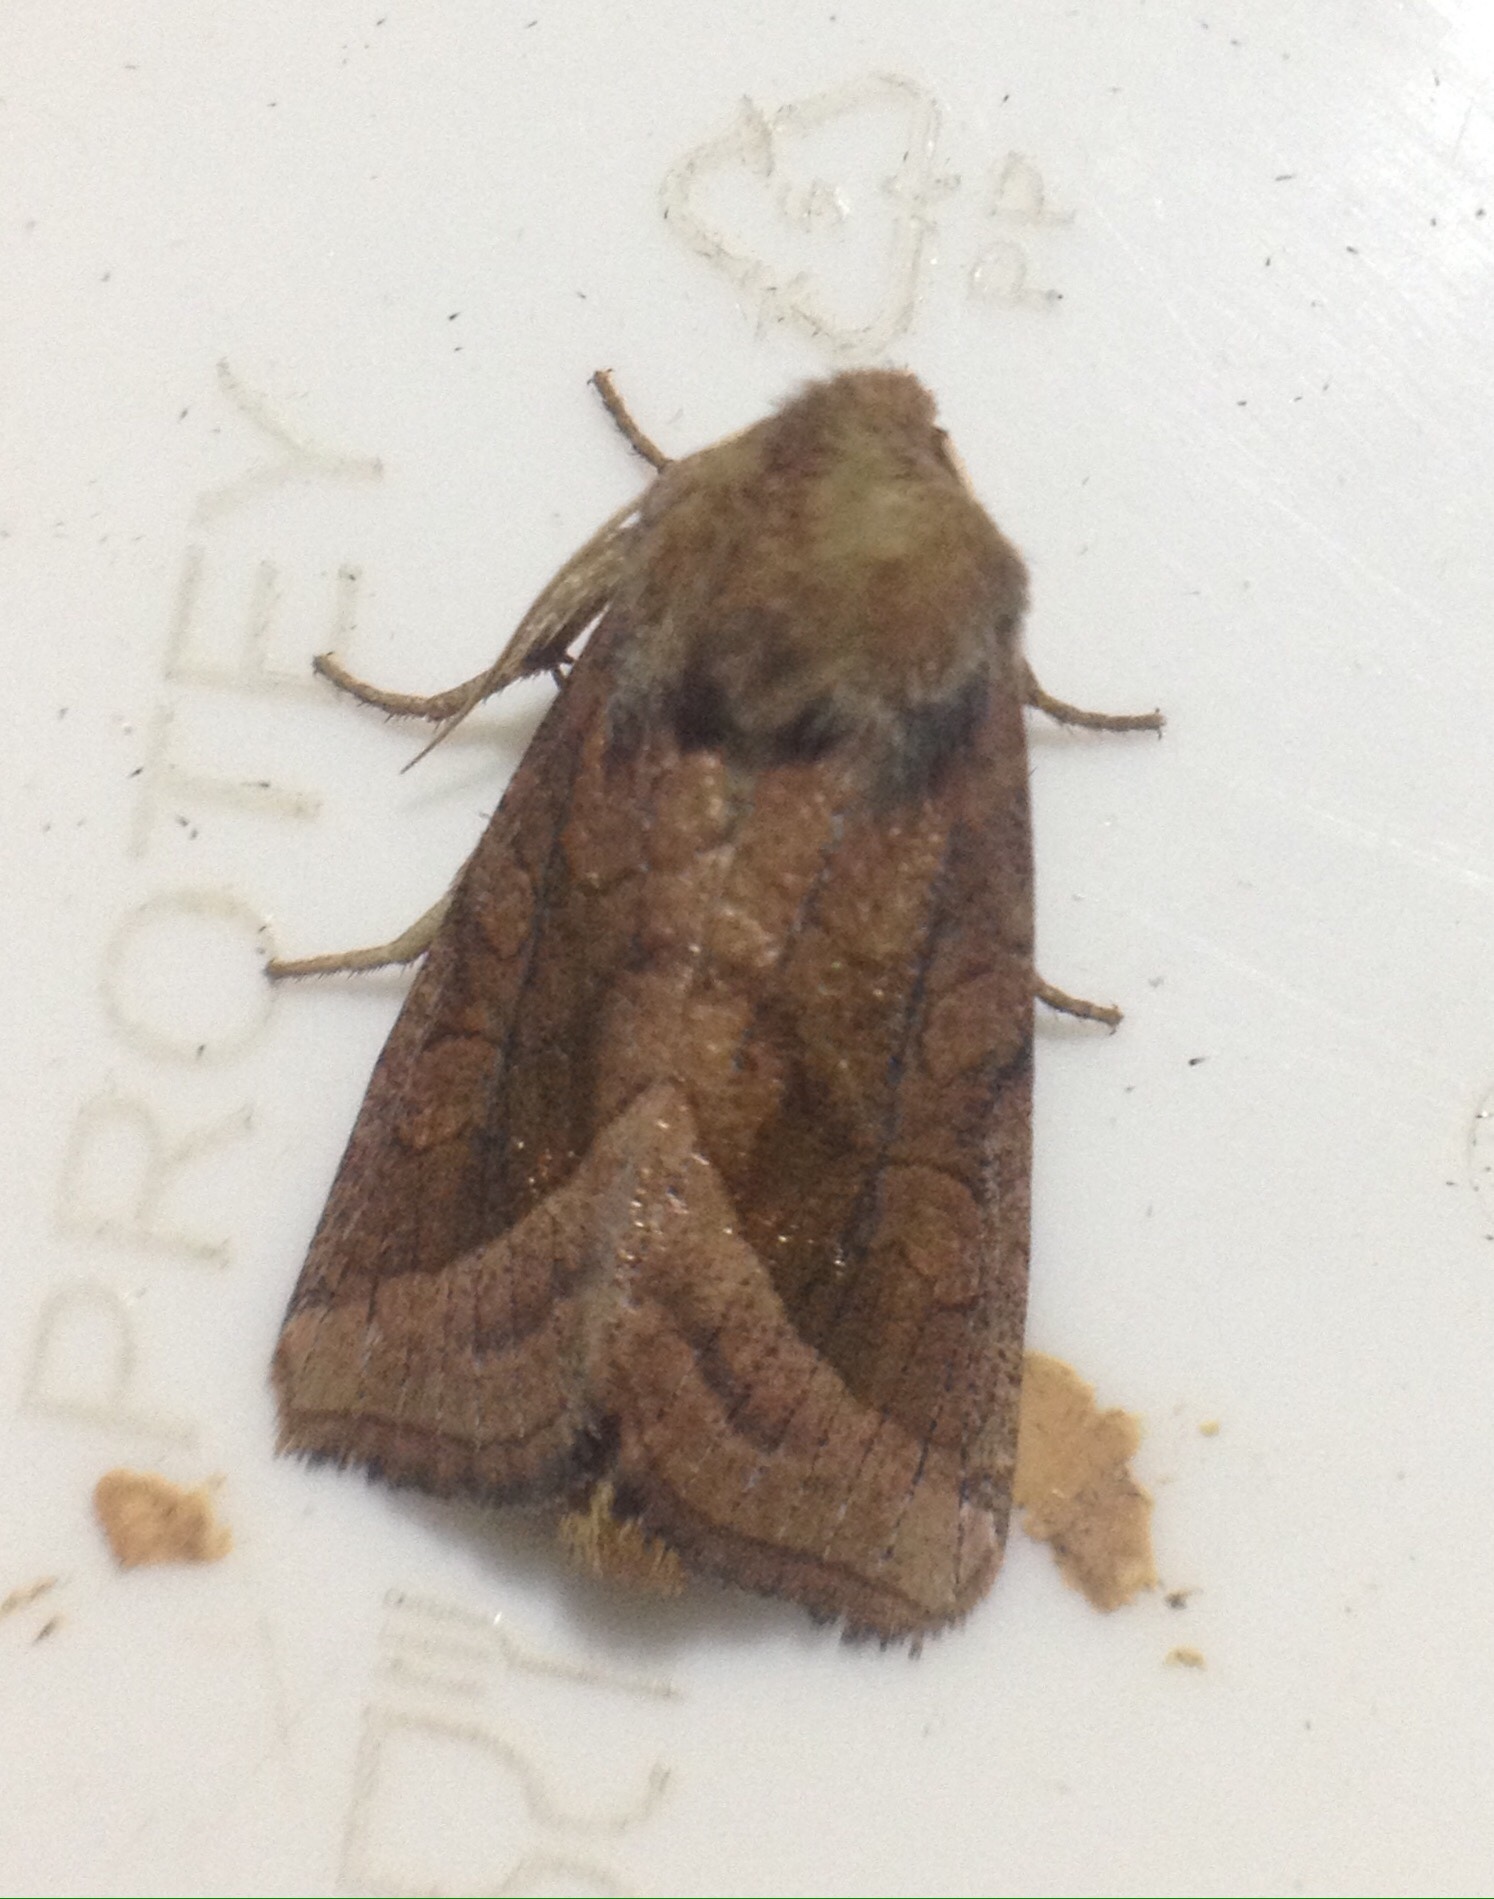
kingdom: Animalia
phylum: Arthropoda
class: Insecta
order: Lepidoptera
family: Noctuidae
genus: Hydraecia
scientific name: Hydraecia ultima
